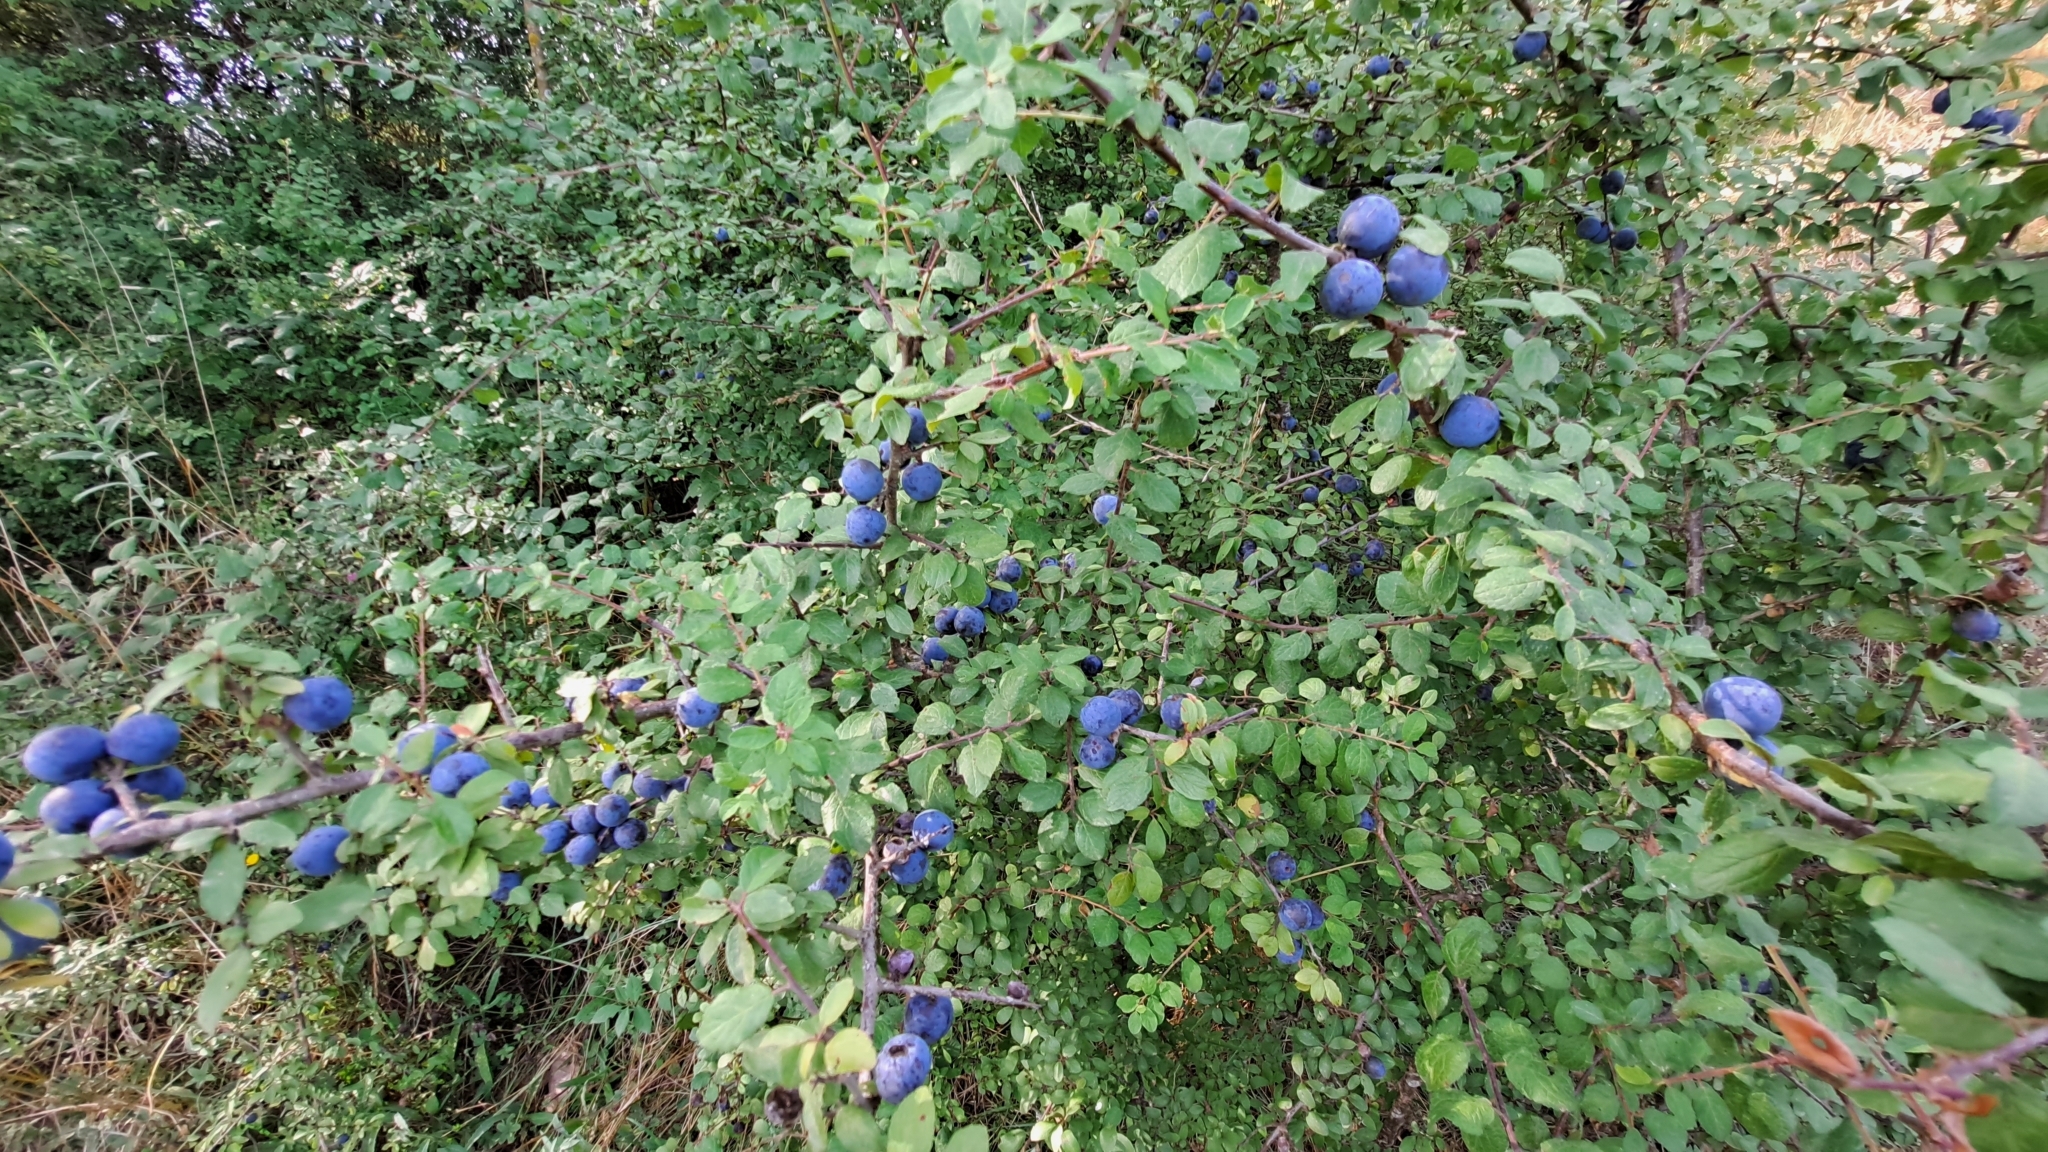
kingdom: Plantae
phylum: Tracheophyta
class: Magnoliopsida
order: Rosales
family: Rosaceae
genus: Prunus
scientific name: Prunus spinosa
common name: Blackthorn
